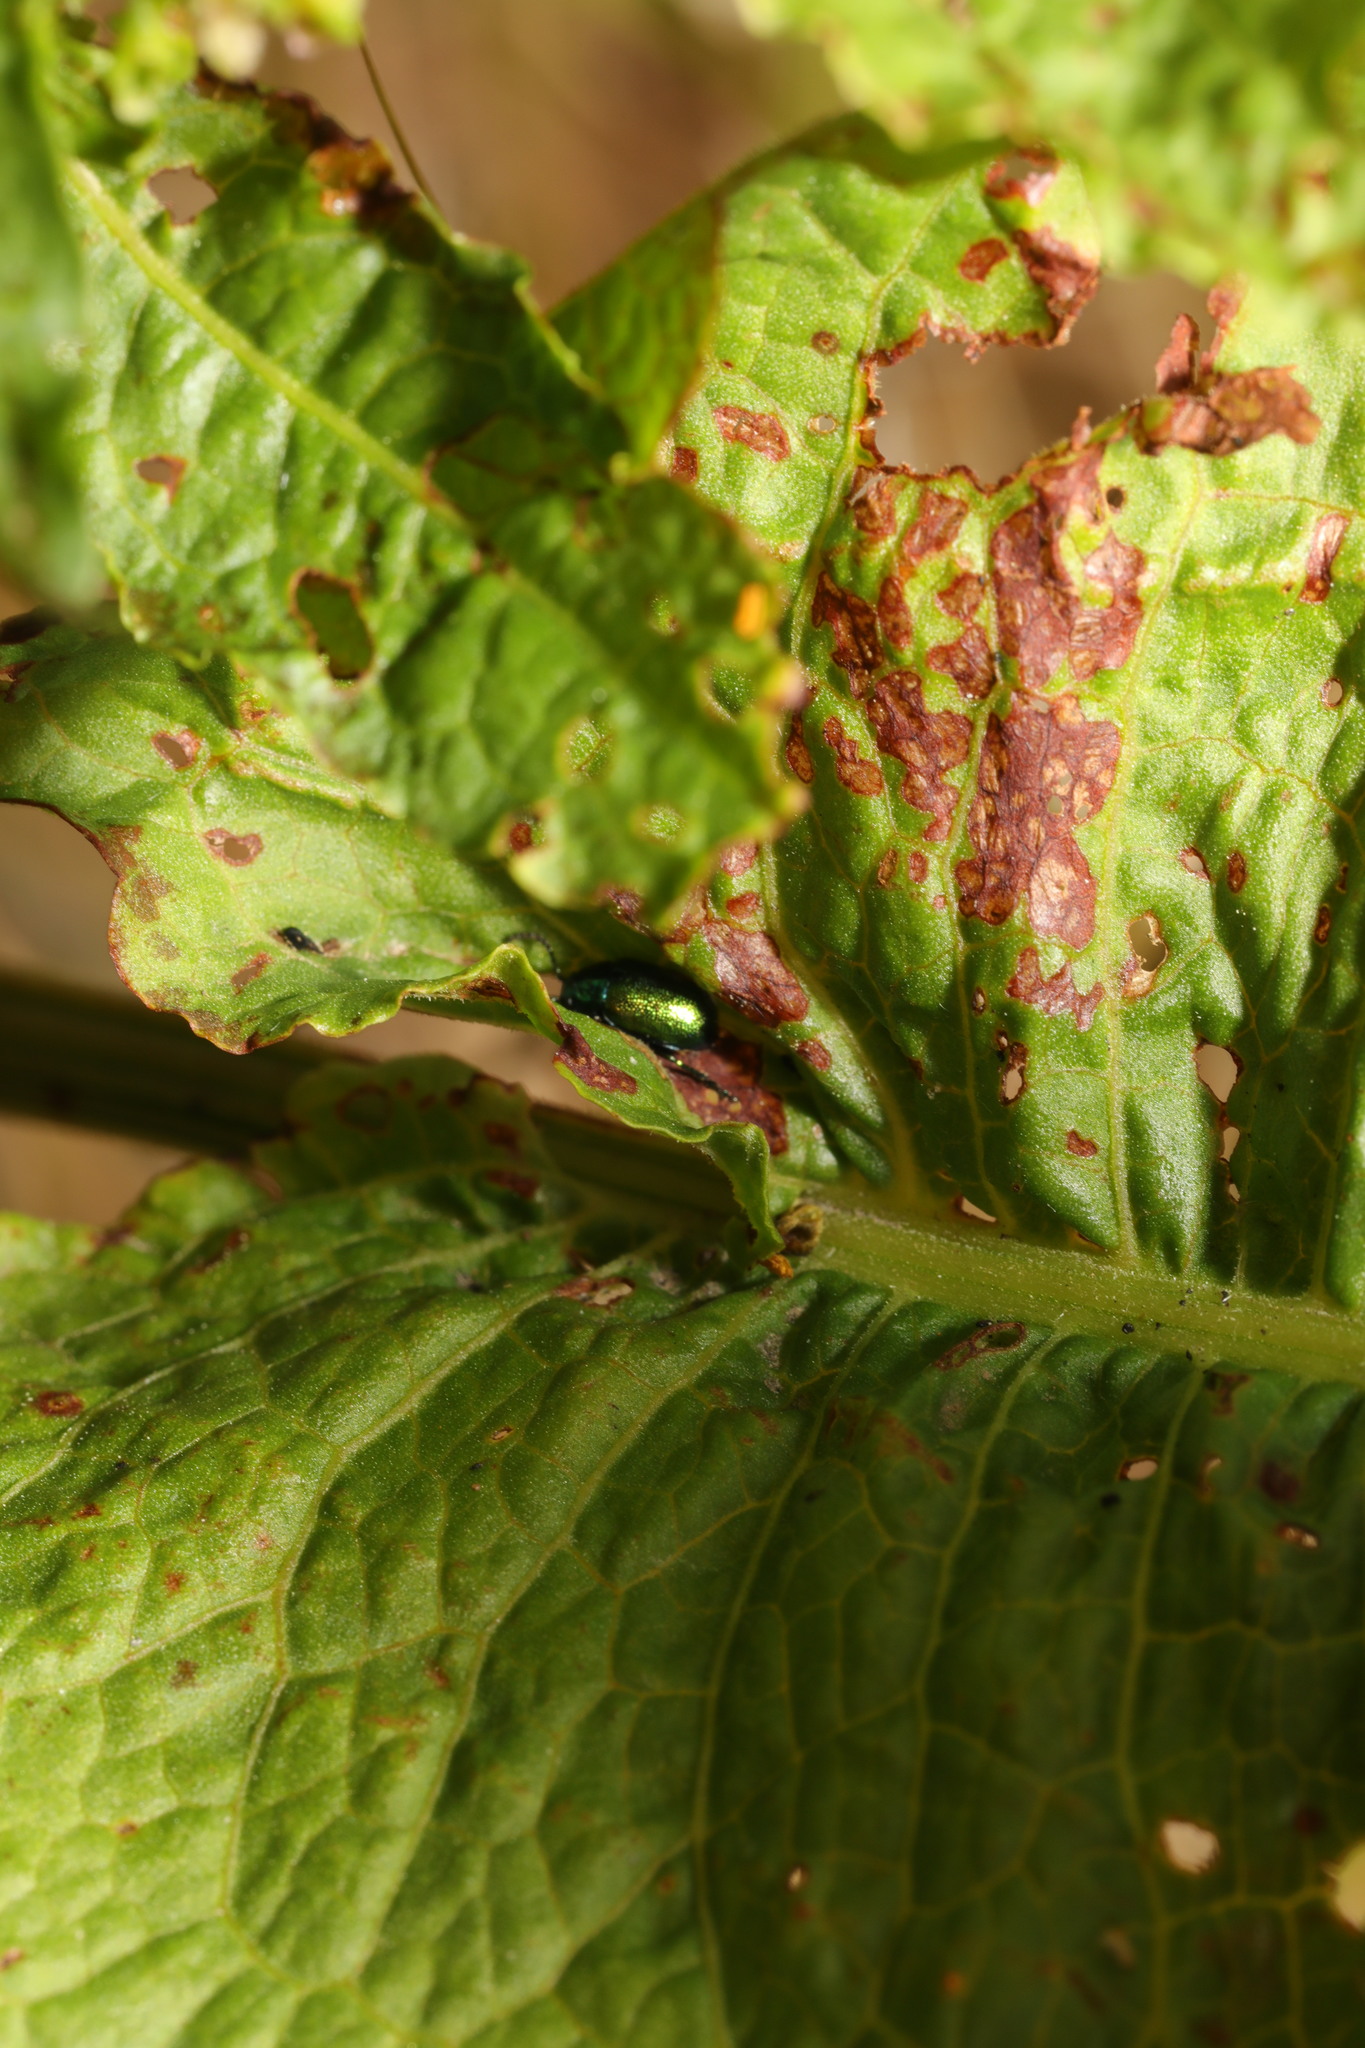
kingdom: Animalia
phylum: Arthropoda
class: Insecta
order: Coleoptera
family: Chrysomelidae
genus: Gastrophysa
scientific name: Gastrophysa viridula
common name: Green dock beetle
